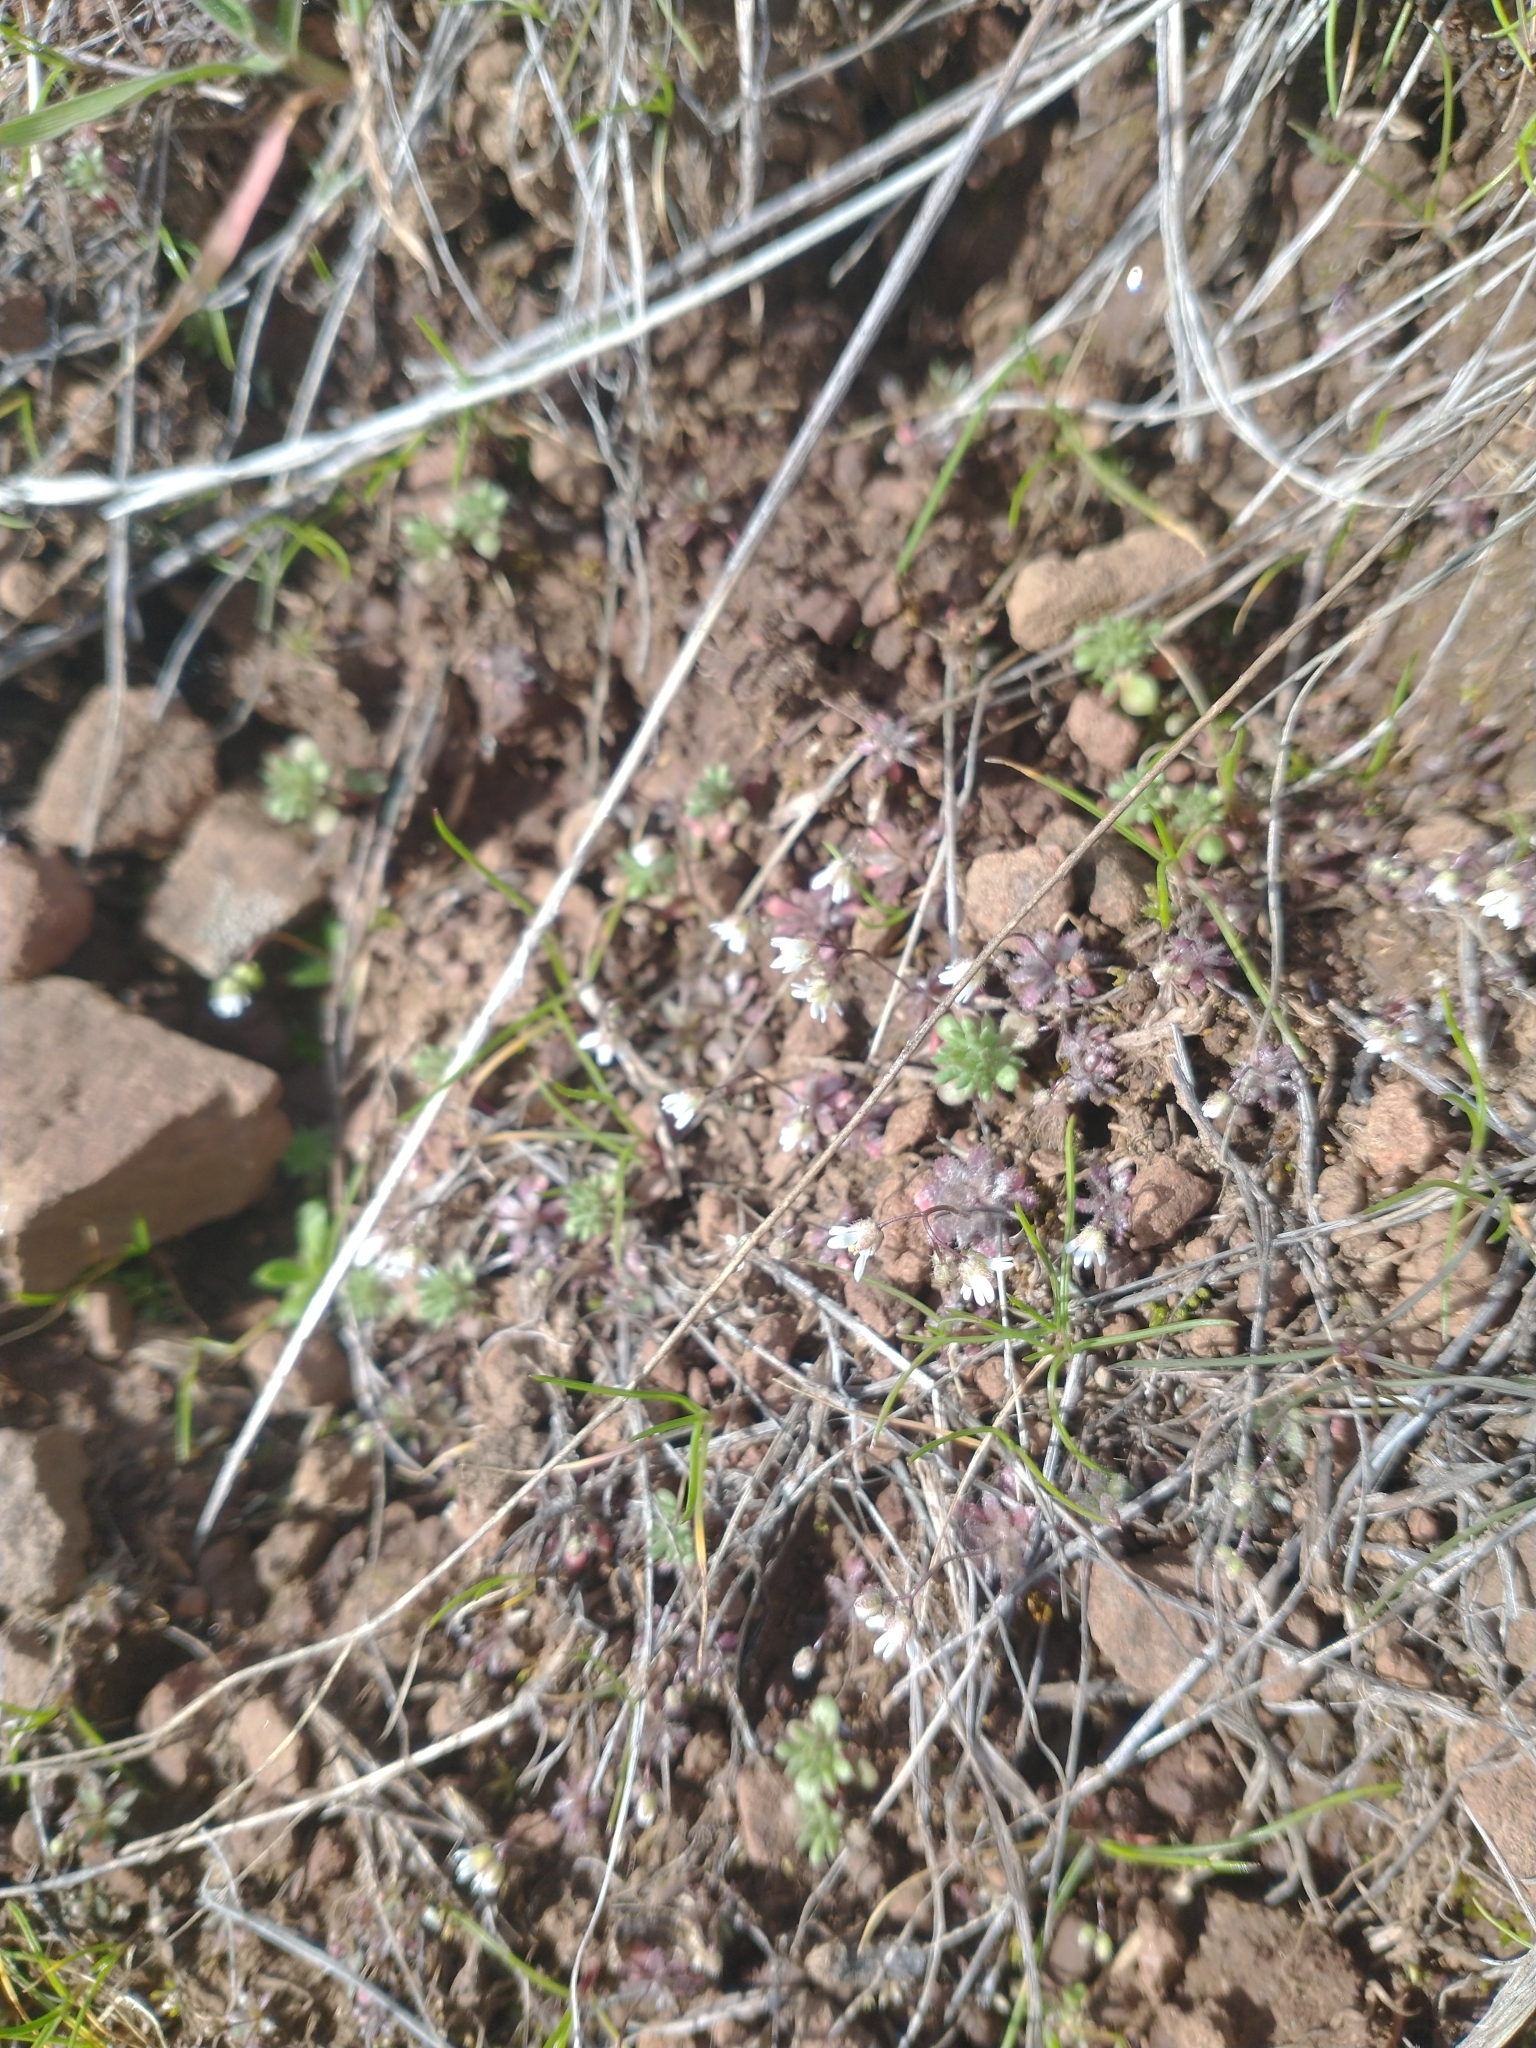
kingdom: Plantae
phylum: Tracheophyta
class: Magnoliopsida
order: Brassicales
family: Brassicaceae
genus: Draba
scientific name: Draba verna
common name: Spring draba
